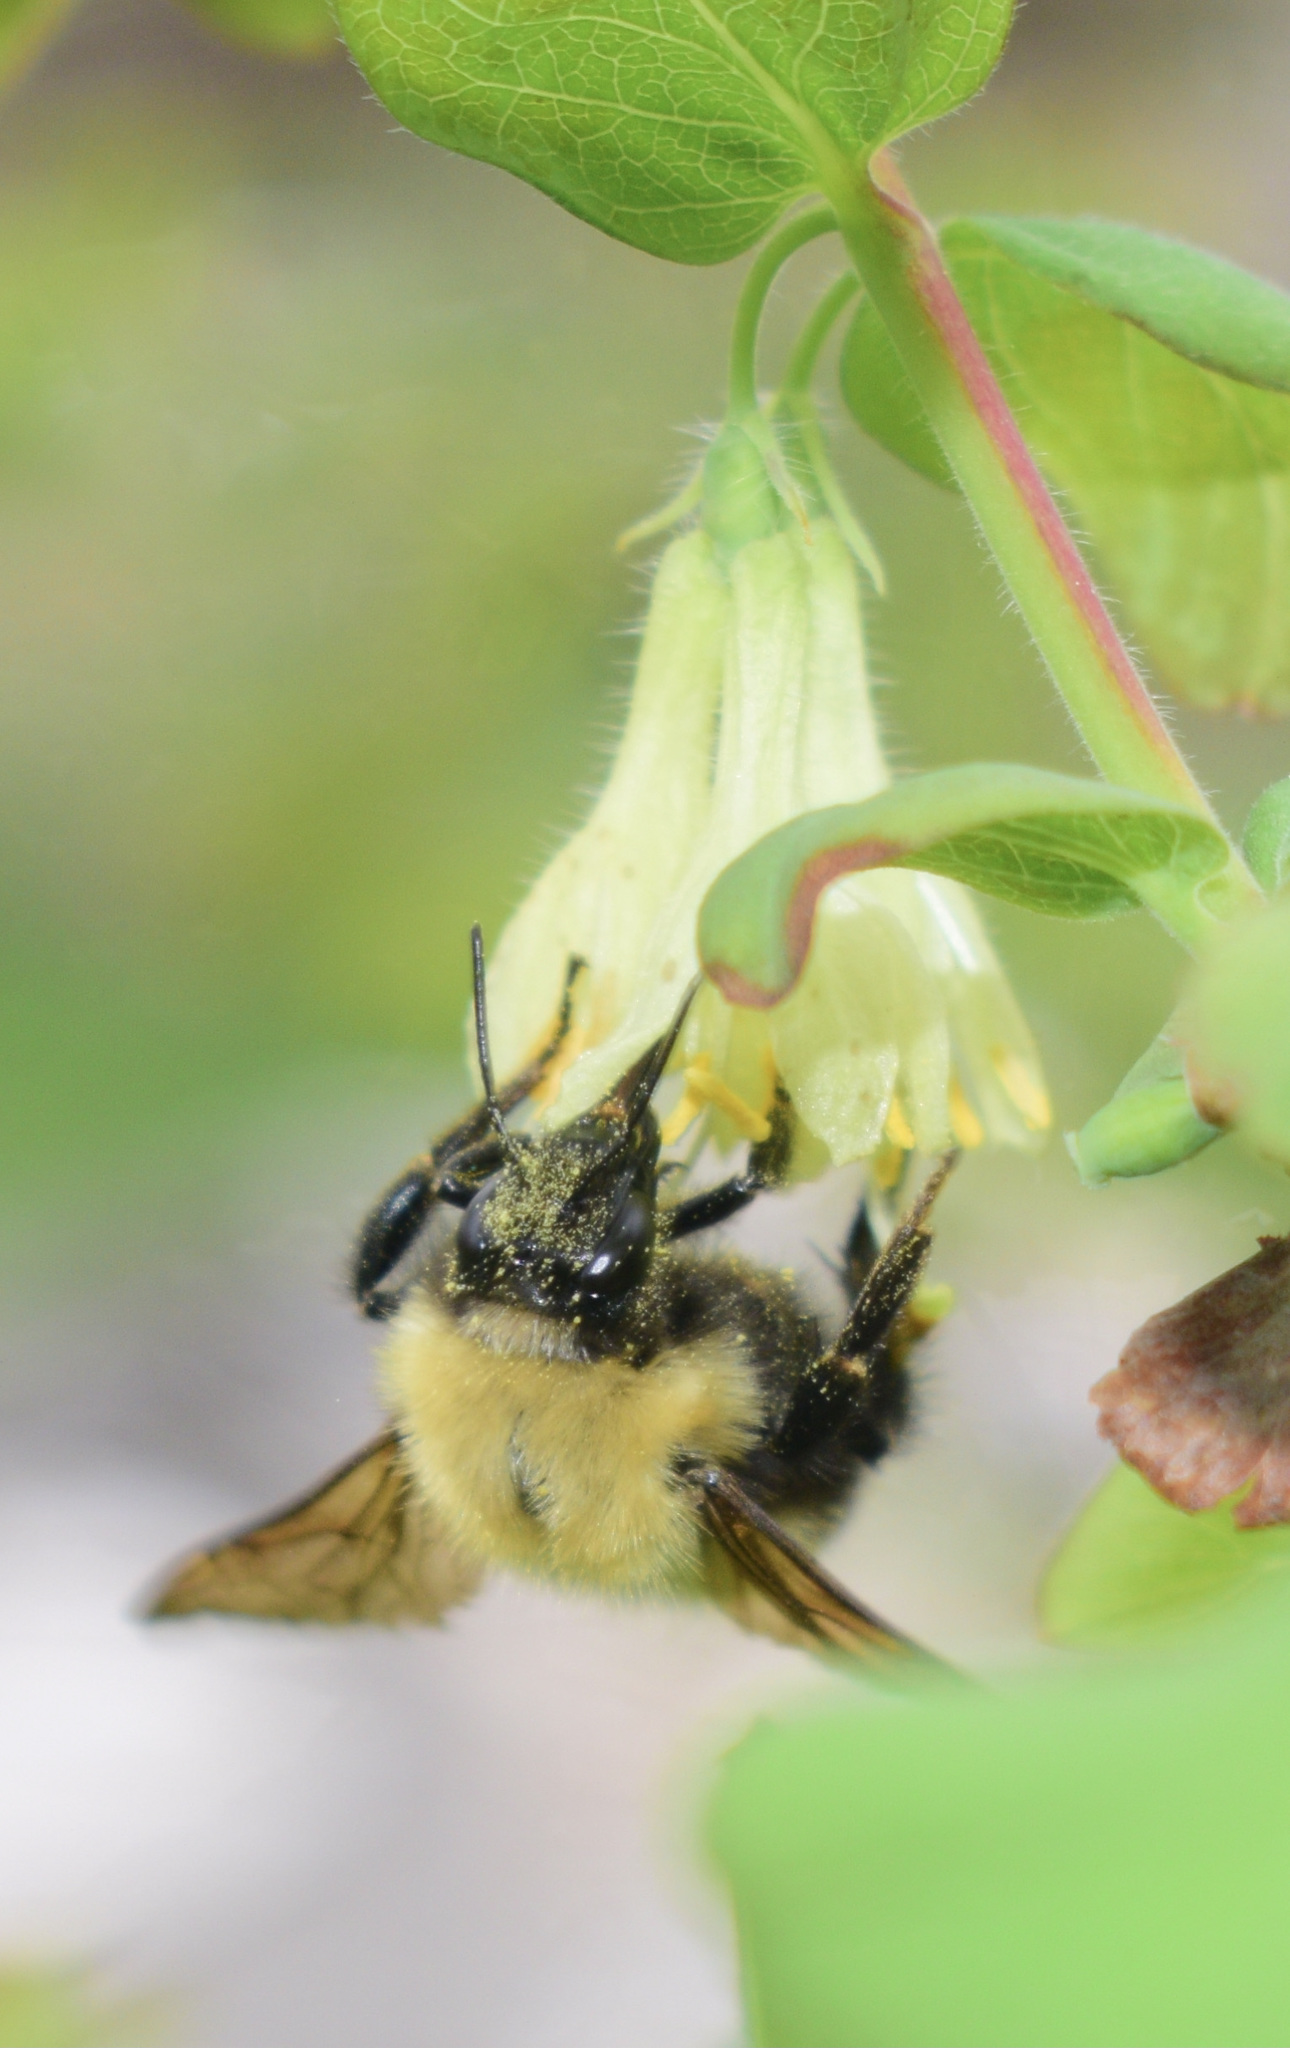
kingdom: Animalia
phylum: Arthropoda
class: Insecta
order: Hymenoptera
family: Apidae
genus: Bombus
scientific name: Bombus perplexus
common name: Confusing bumble bee
